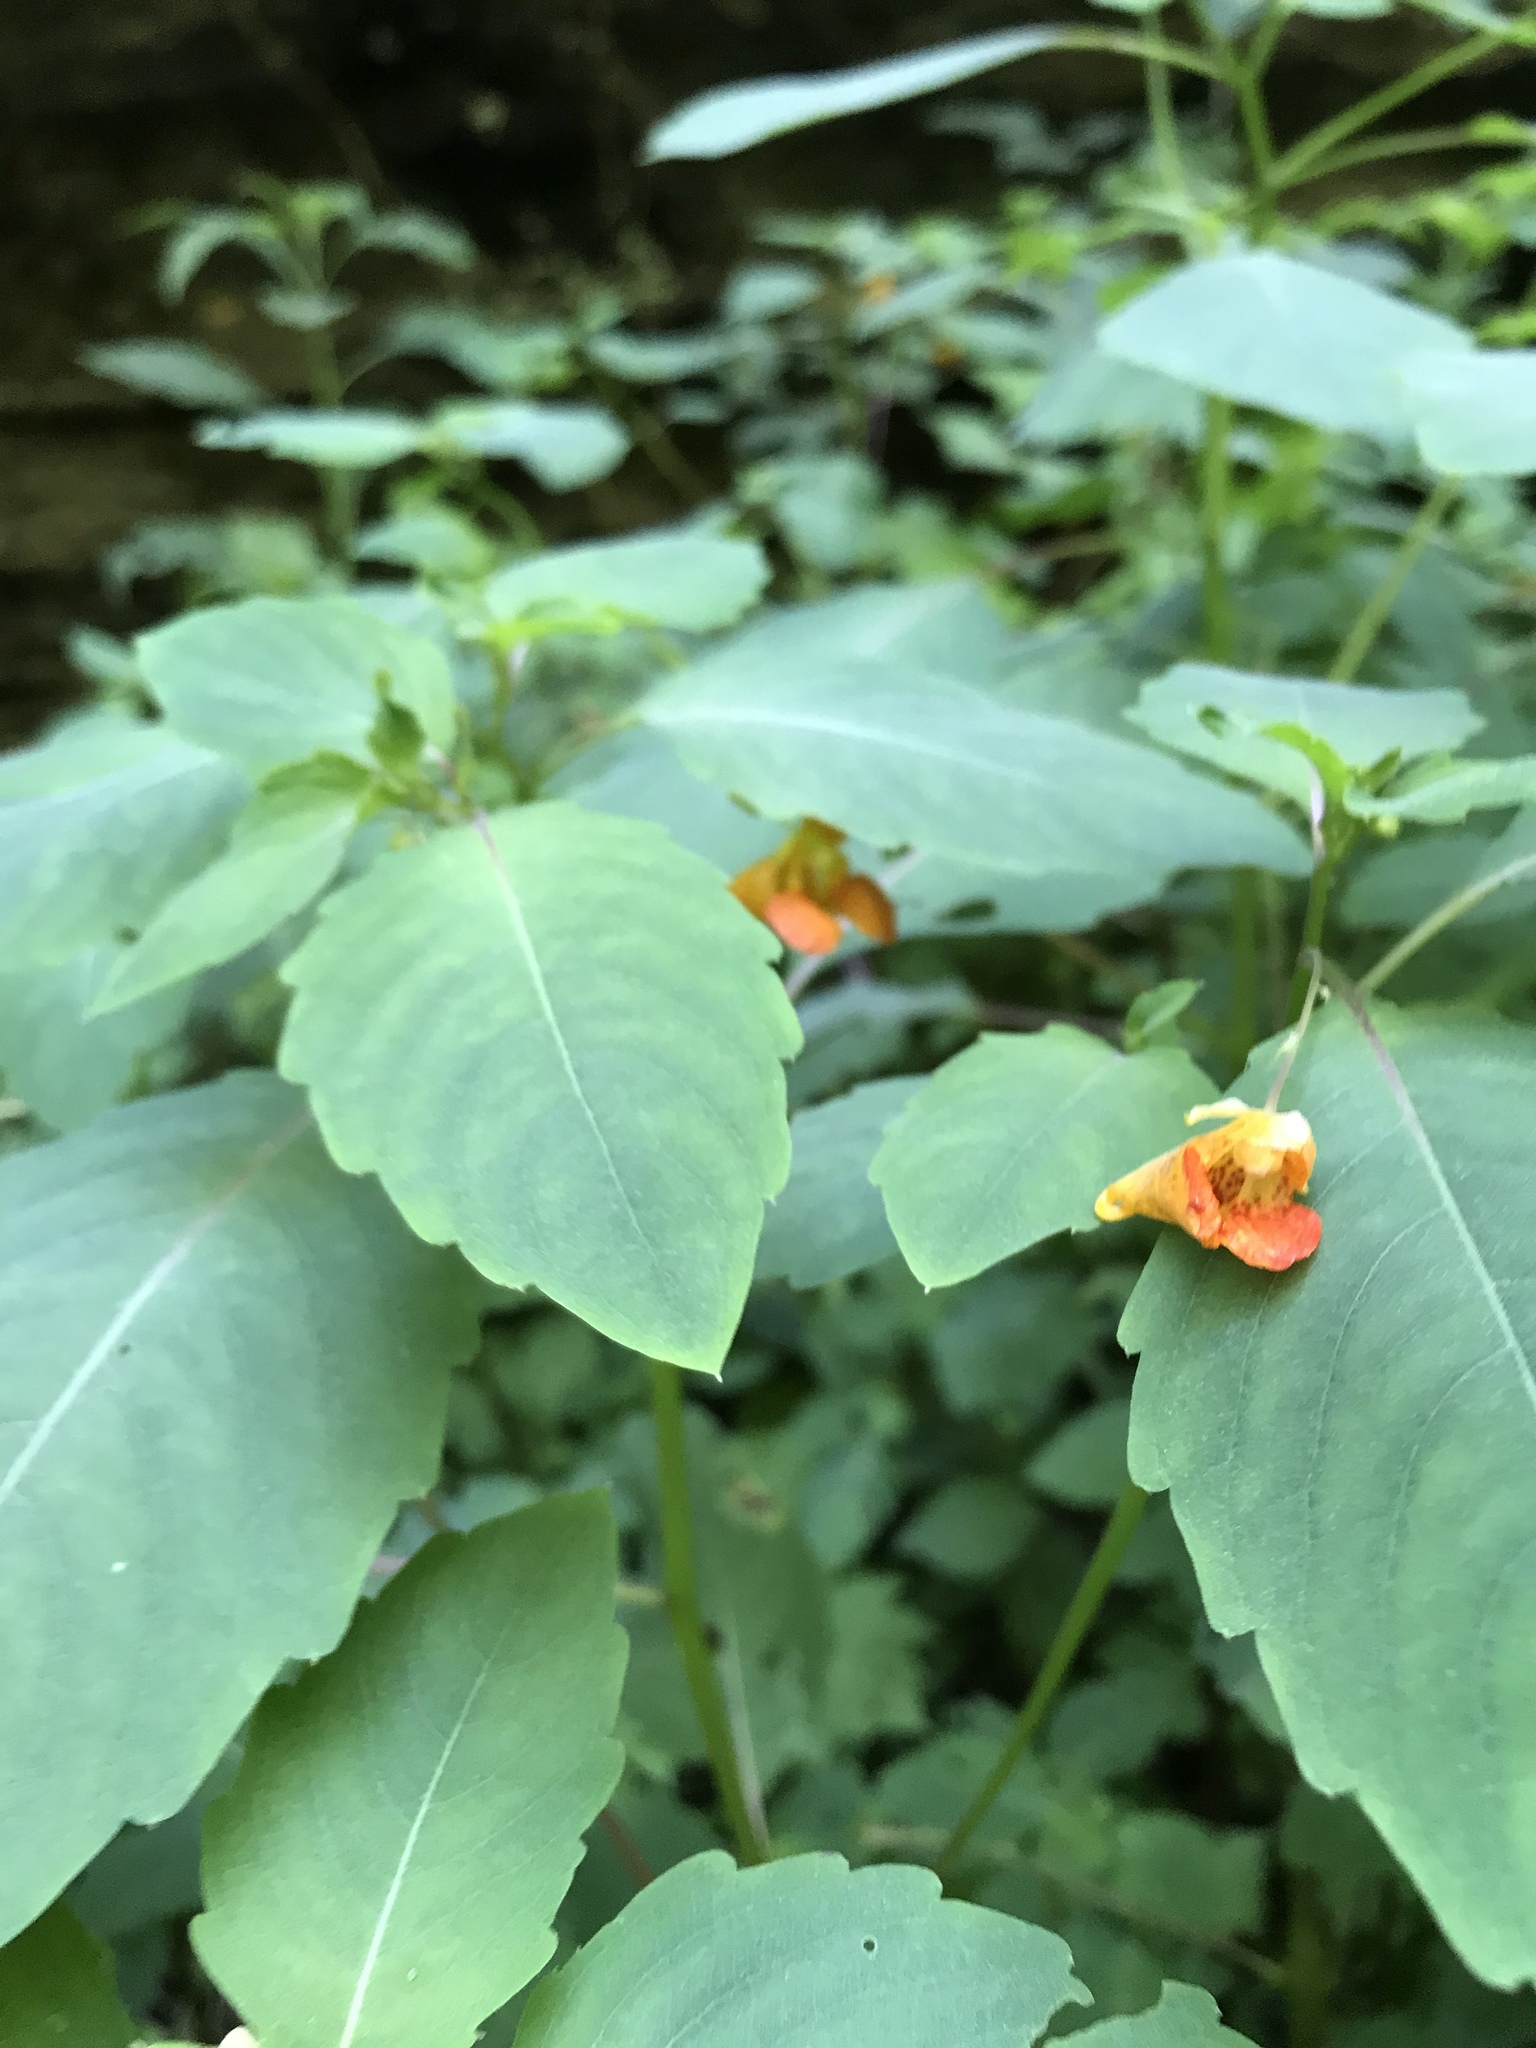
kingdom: Plantae
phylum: Tracheophyta
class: Magnoliopsida
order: Ericales
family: Balsaminaceae
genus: Impatiens
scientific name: Impatiens capensis
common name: Orange balsam
